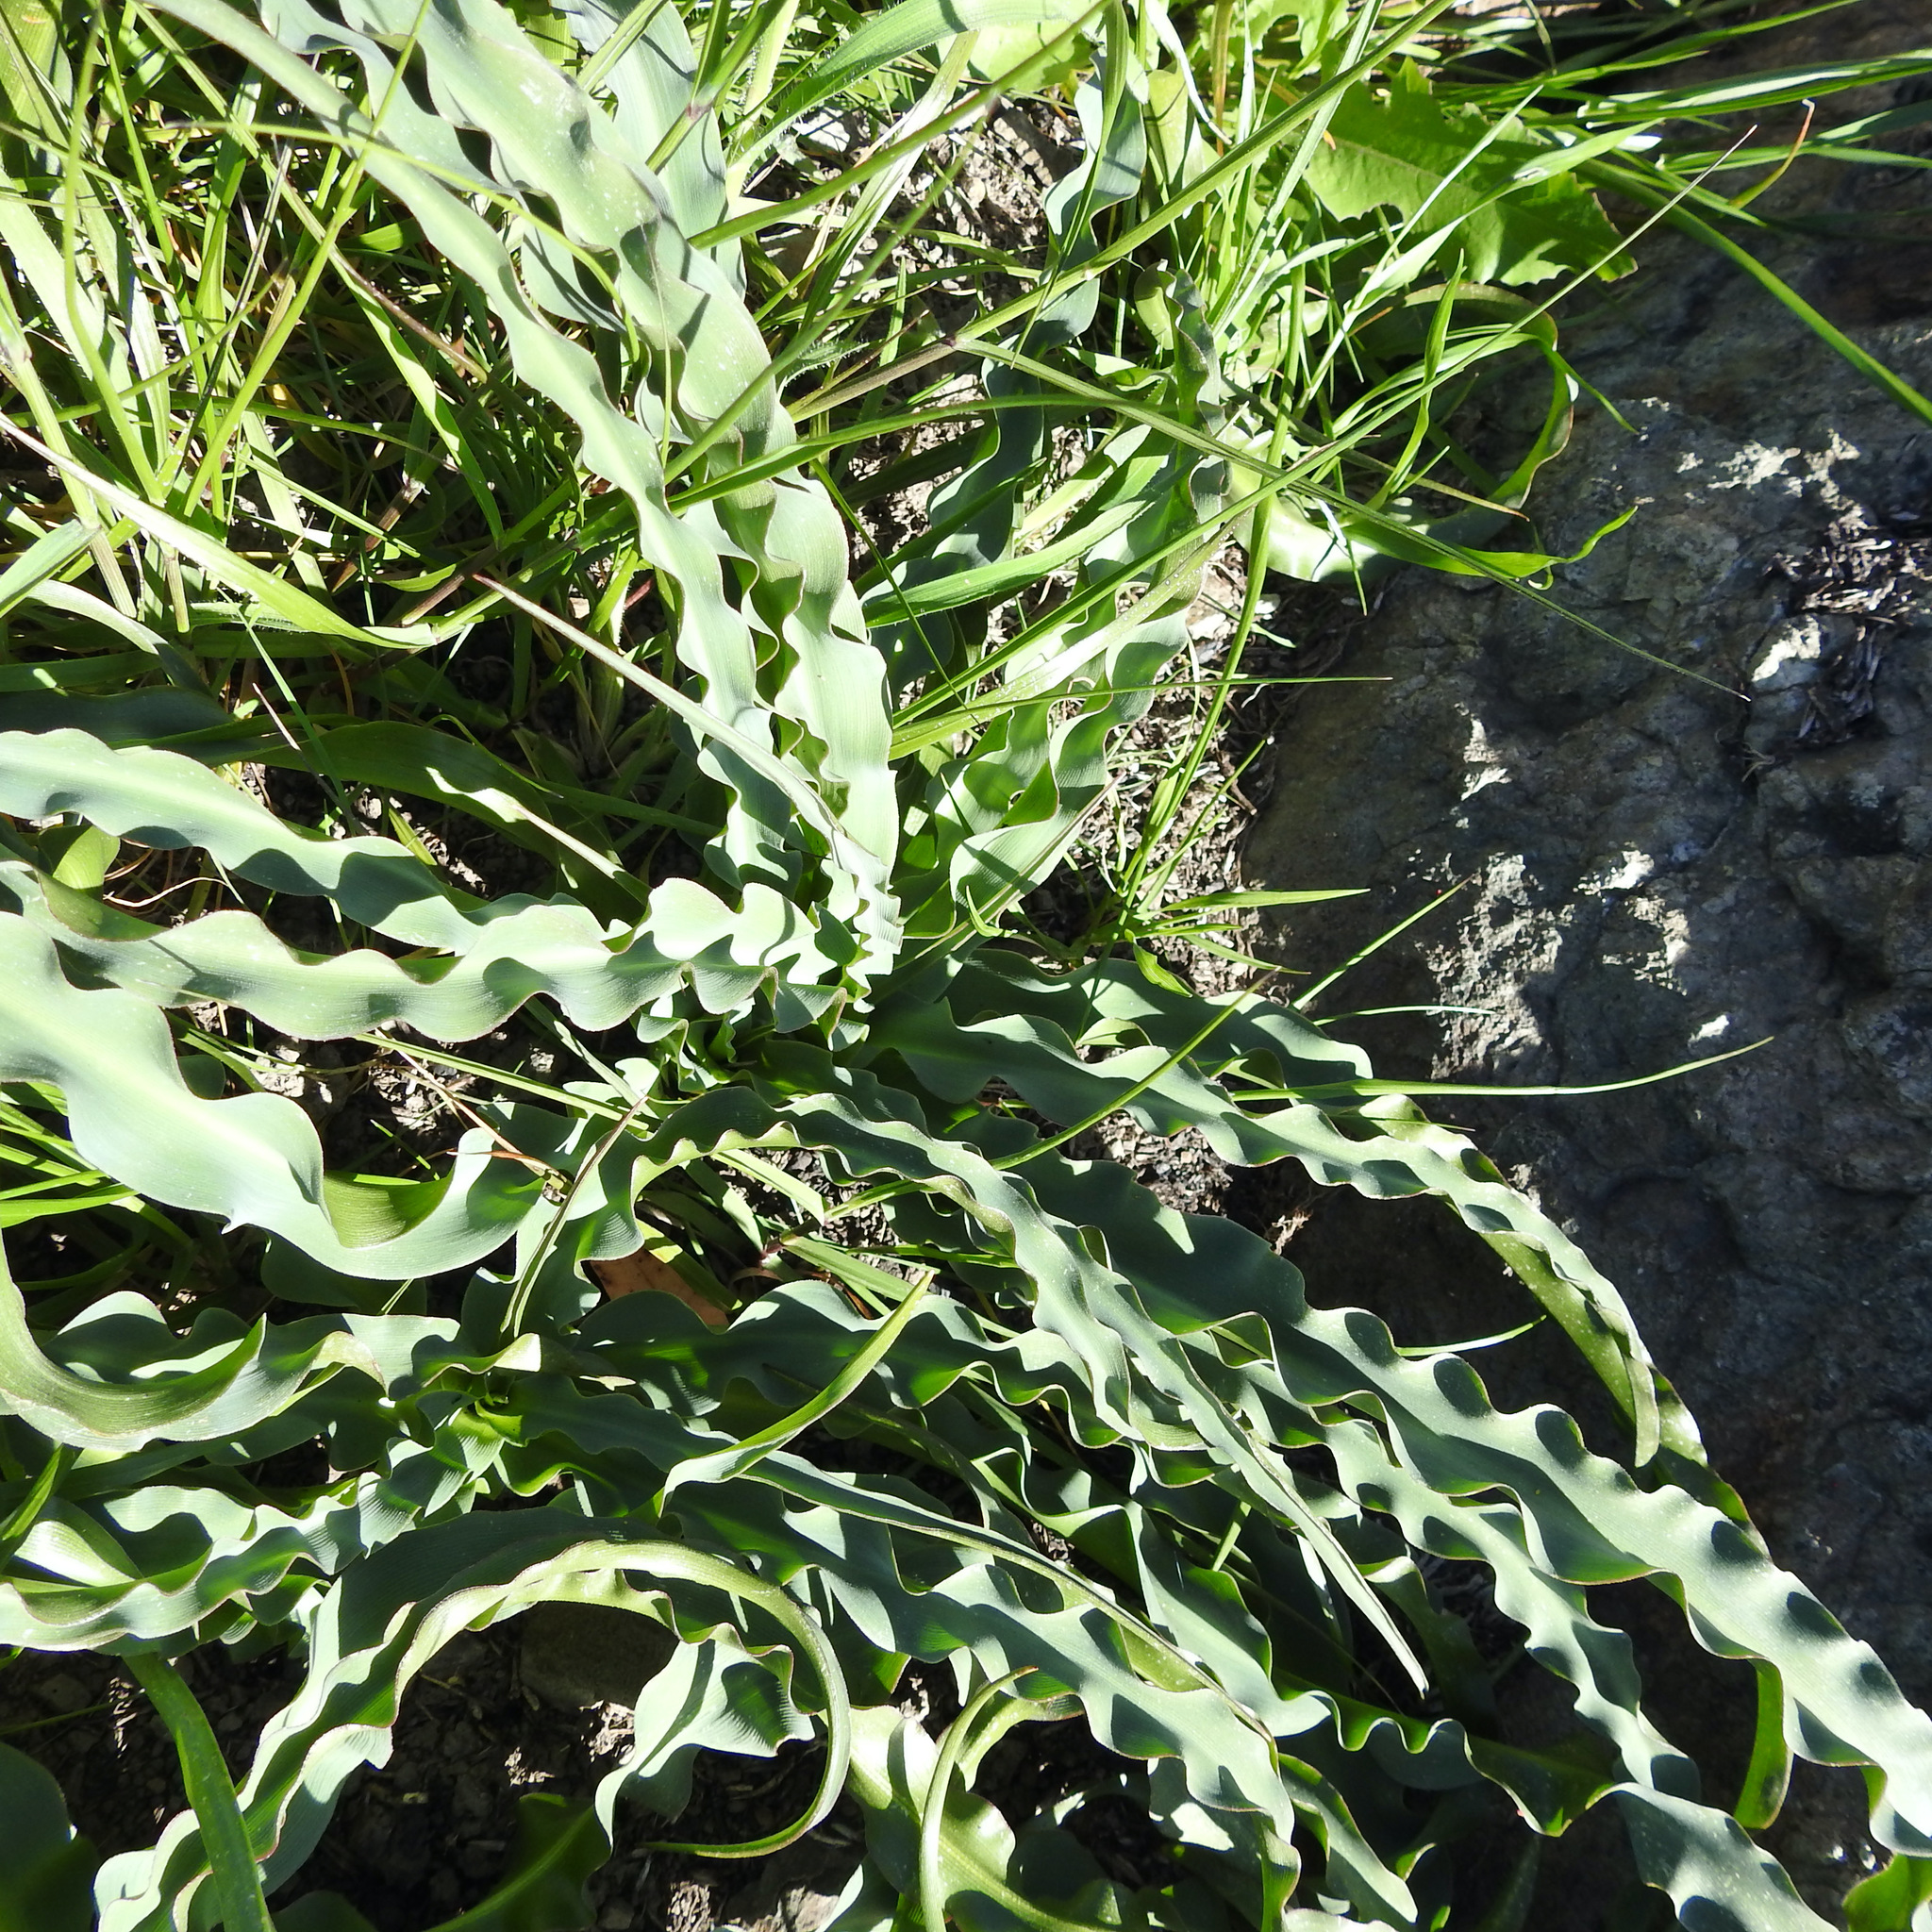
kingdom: Plantae
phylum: Tracheophyta
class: Liliopsida
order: Asparagales
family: Asparagaceae
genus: Chlorogalum
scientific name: Chlorogalum pomeridianum
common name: Amole
